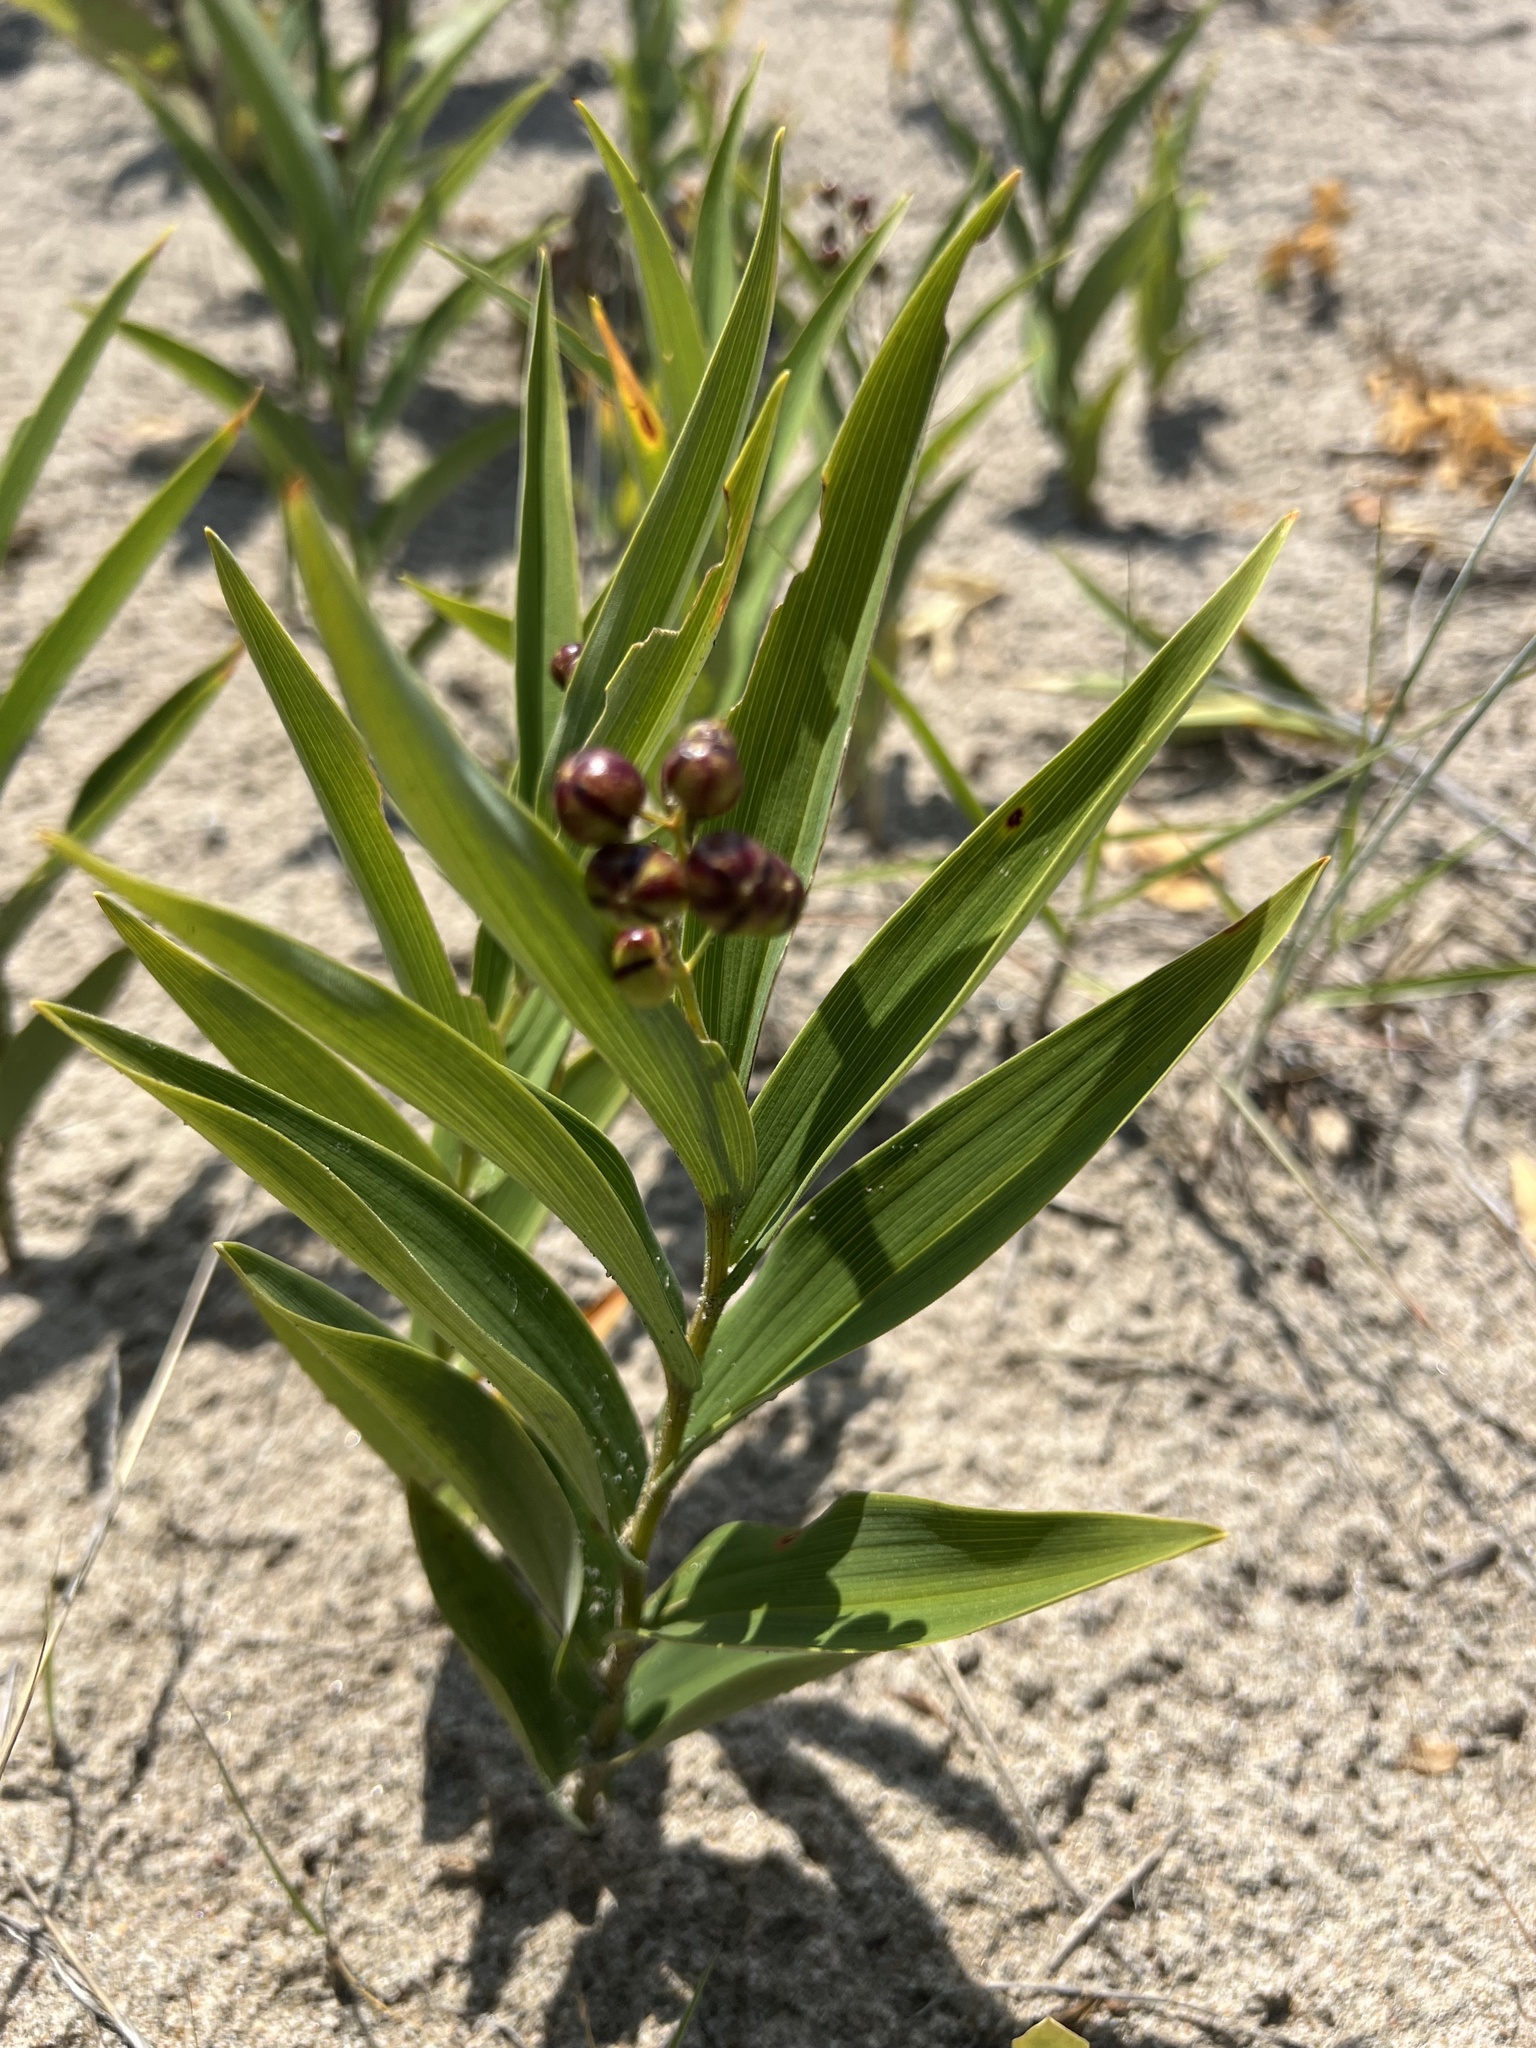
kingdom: Plantae
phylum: Tracheophyta
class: Liliopsida
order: Asparagales
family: Asparagaceae
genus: Maianthemum
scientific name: Maianthemum stellatum
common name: Little false solomon's seal
